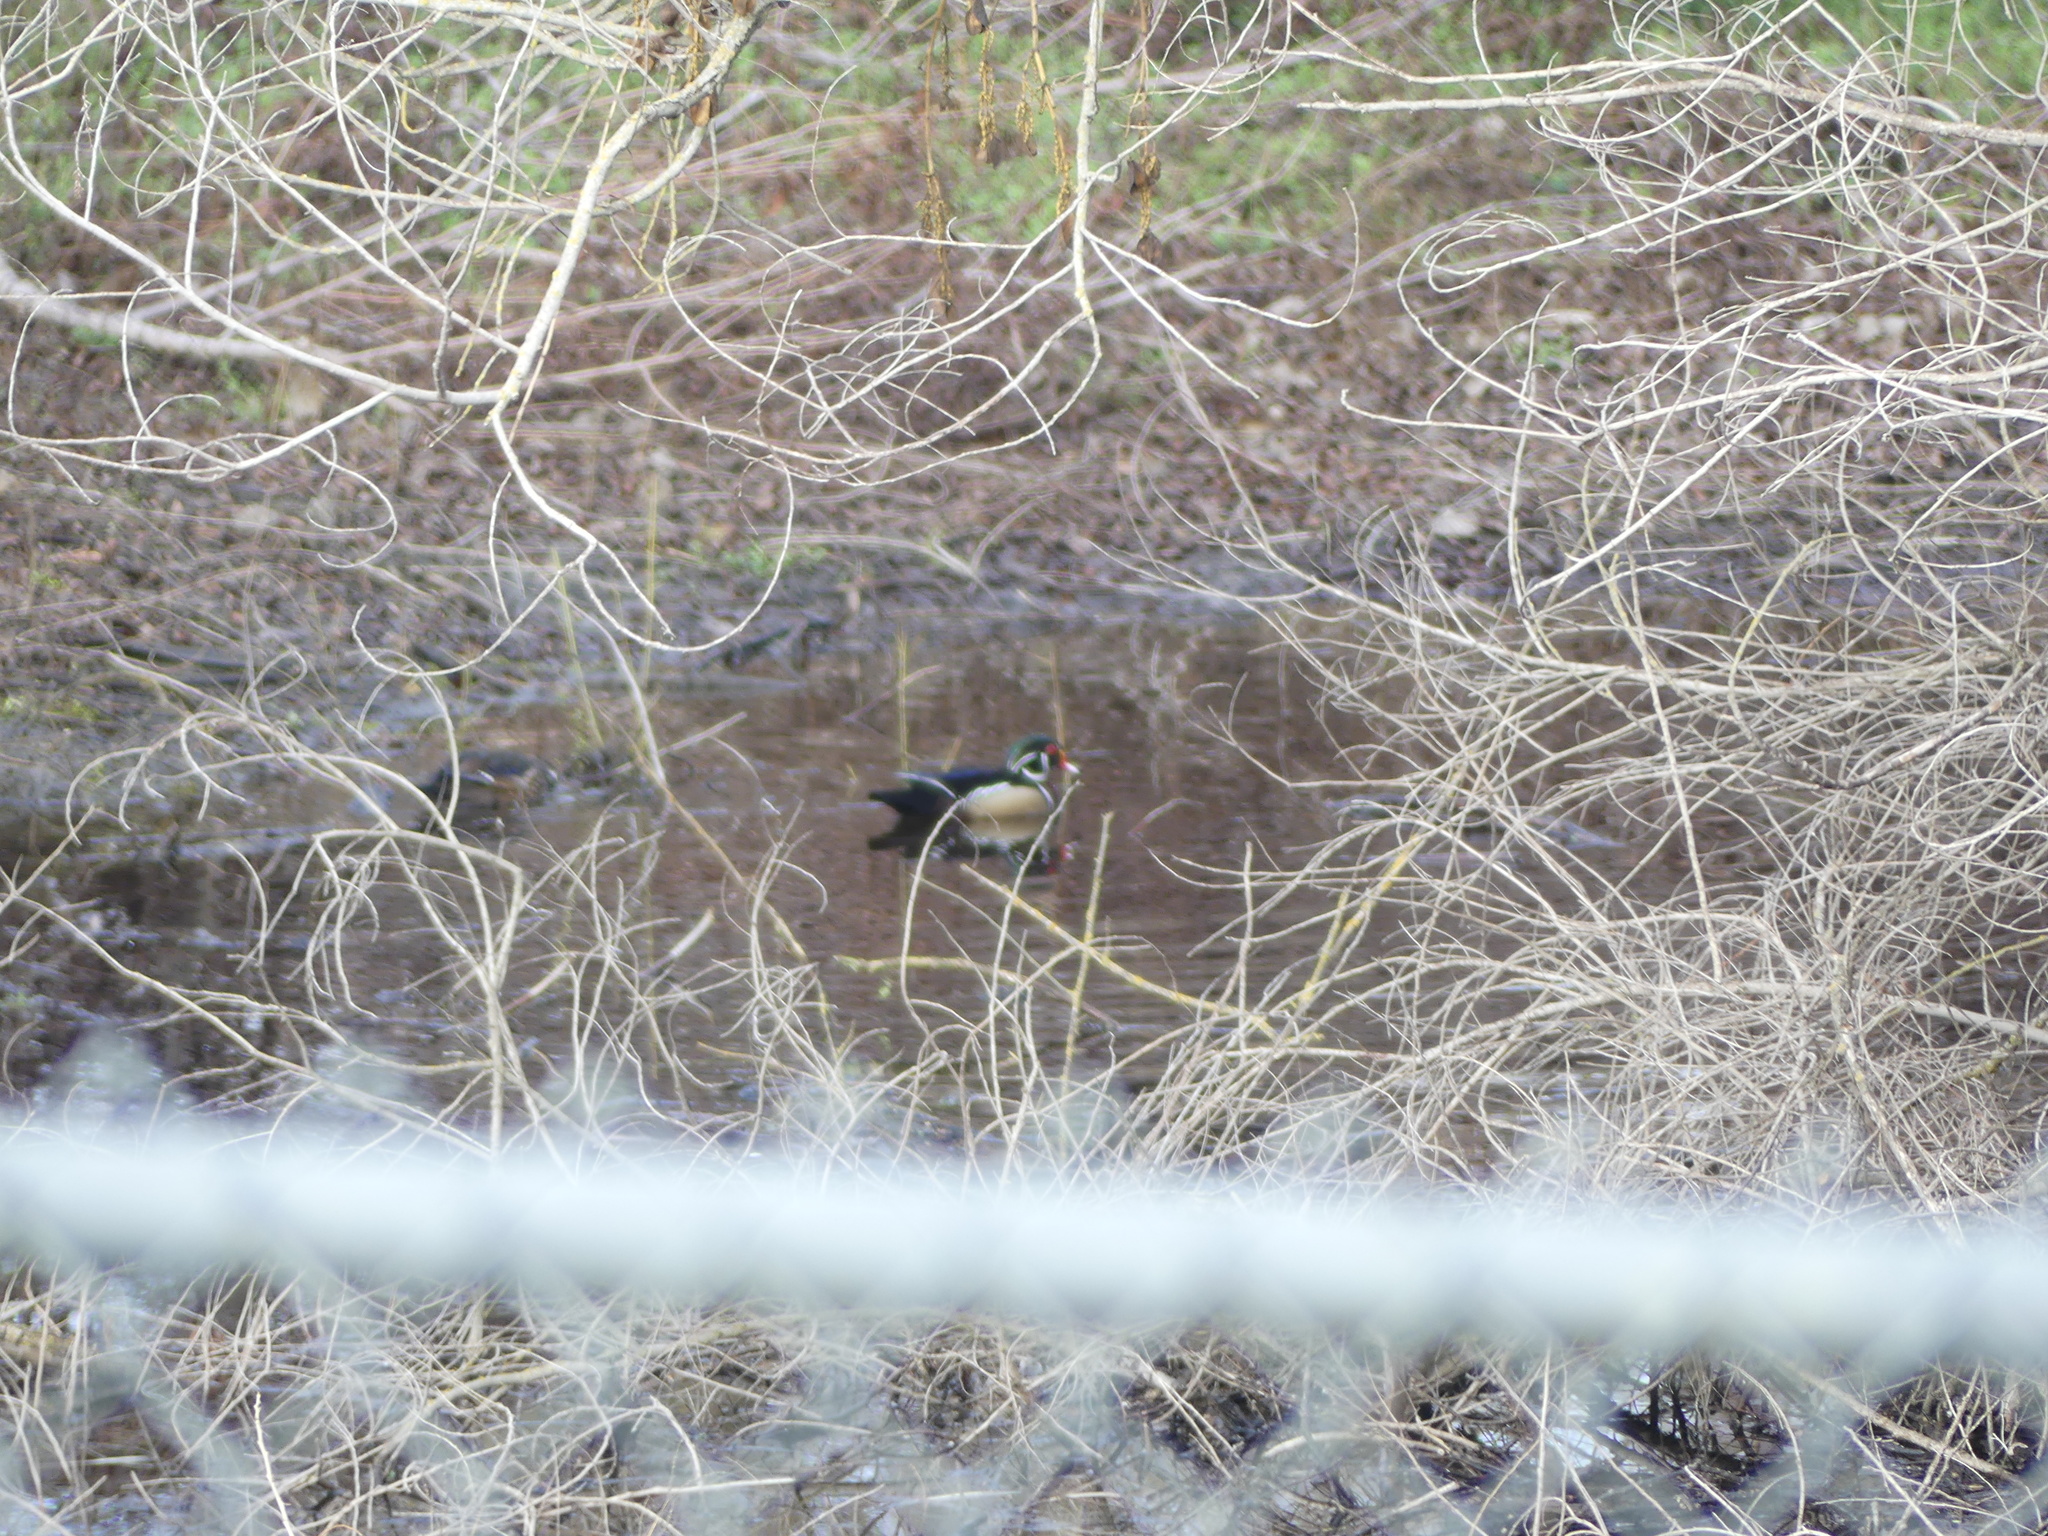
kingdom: Animalia
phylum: Chordata
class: Aves
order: Anseriformes
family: Anatidae
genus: Aix
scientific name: Aix sponsa
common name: Wood duck
